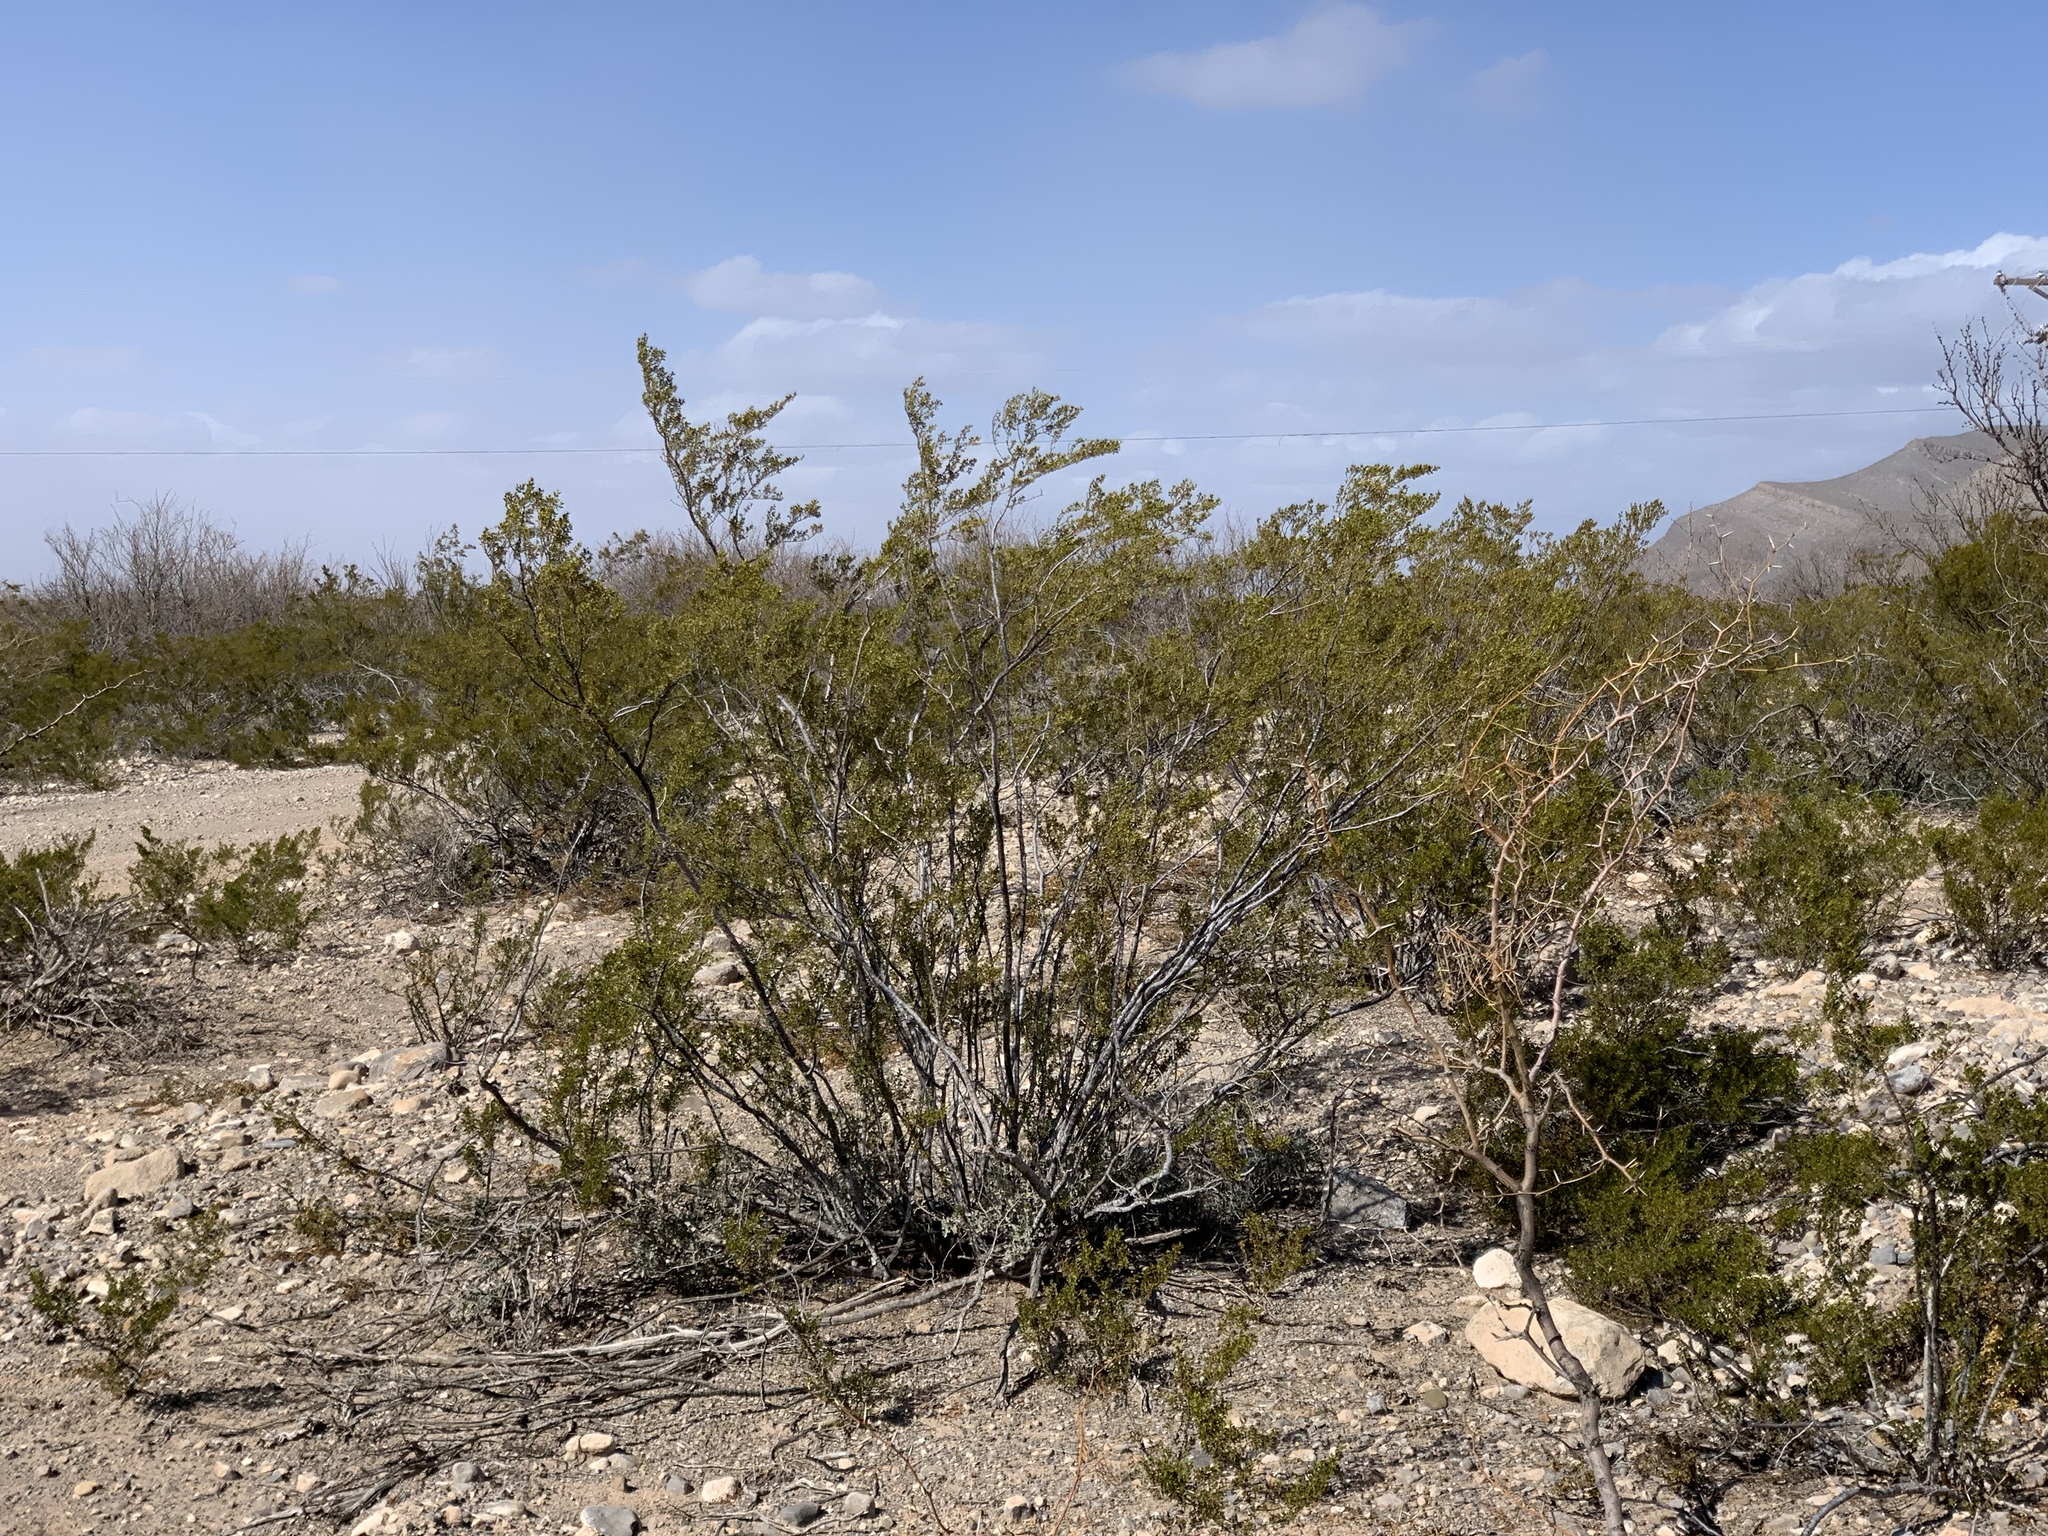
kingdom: Plantae
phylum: Tracheophyta
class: Magnoliopsida
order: Zygophyllales
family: Zygophyllaceae
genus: Larrea
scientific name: Larrea tridentata
